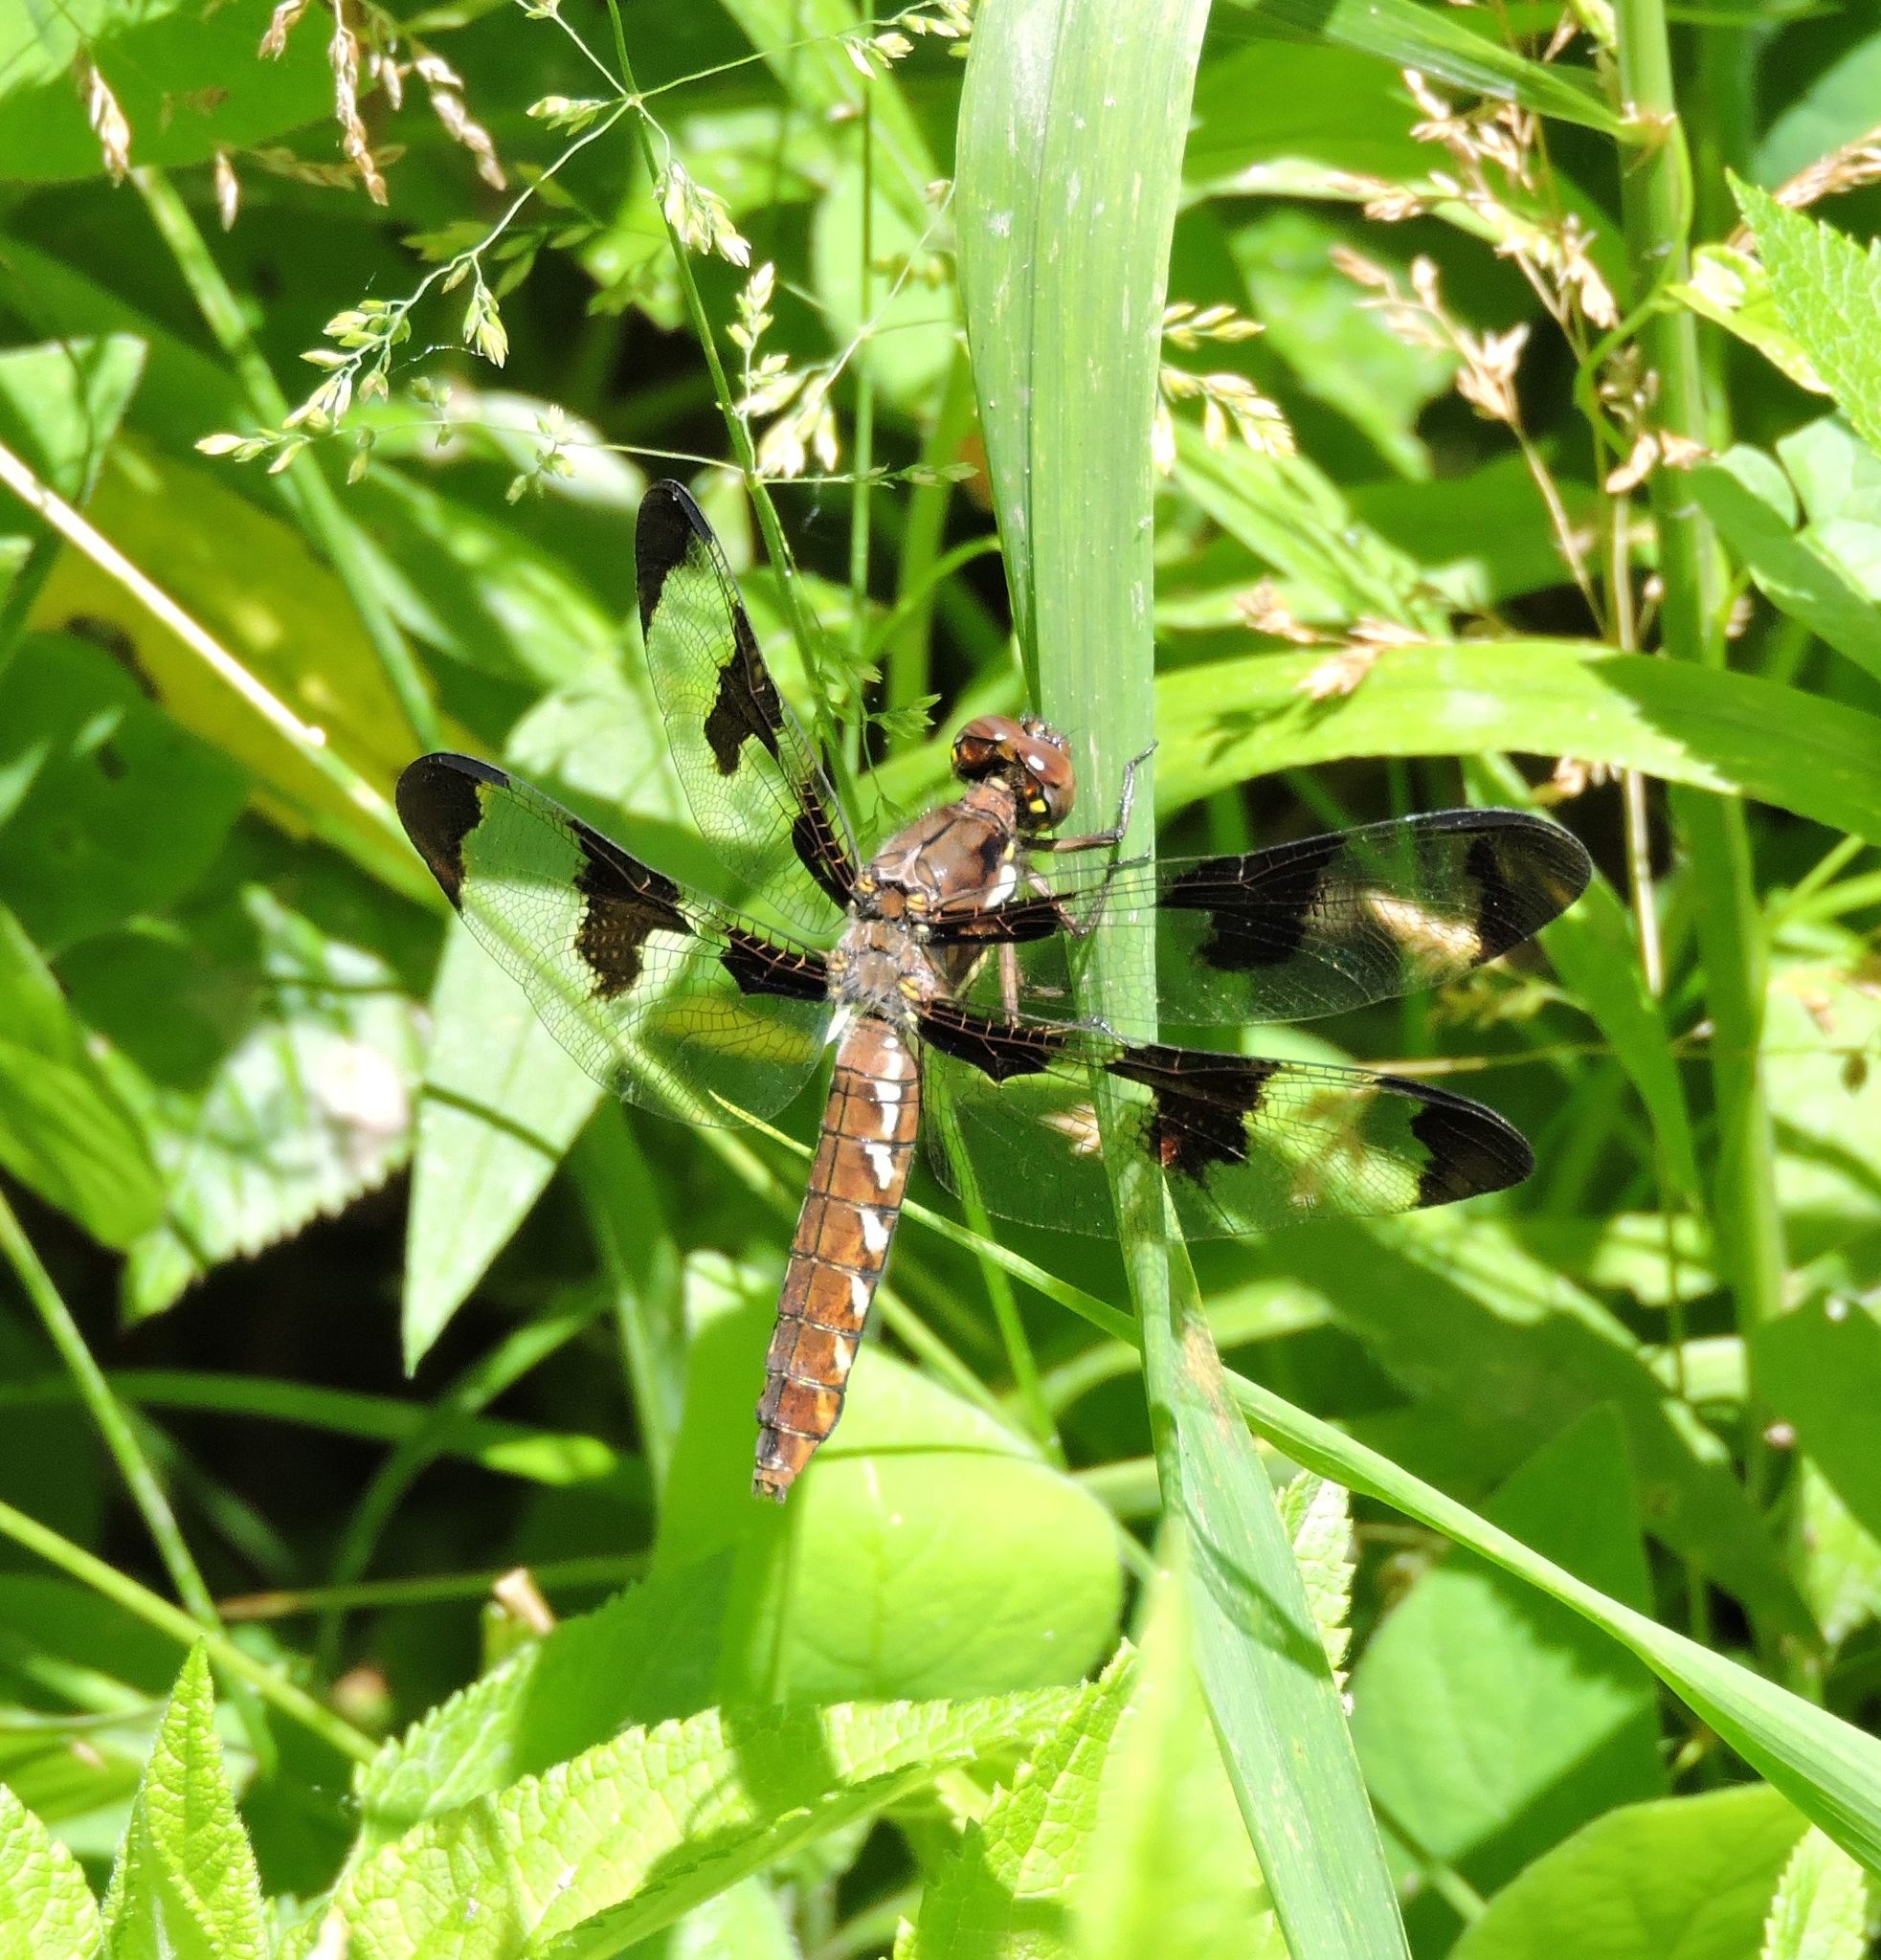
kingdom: Animalia
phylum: Arthropoda
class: Insecta
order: Odonata
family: Libellulidae
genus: Plathemis
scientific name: Plathemis lydia
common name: Common whitetail
